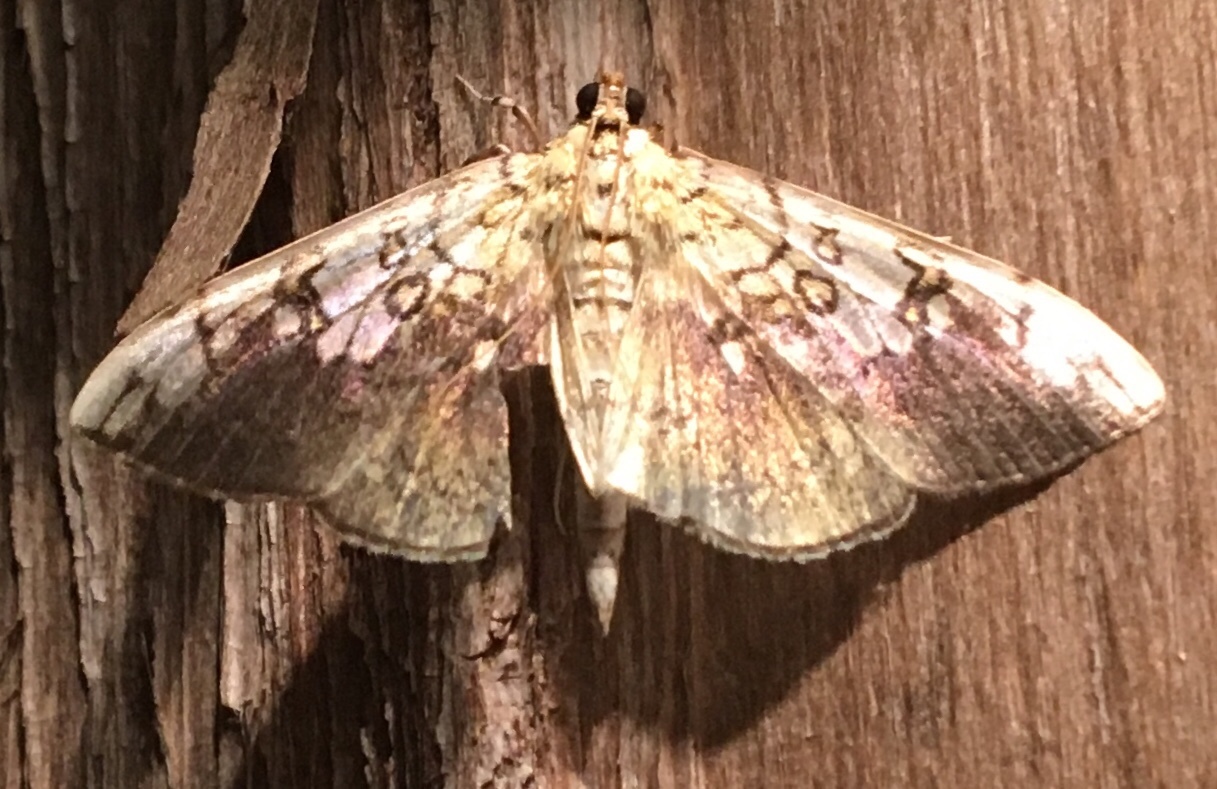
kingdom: Animalia
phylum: Arthropoda
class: Insecta
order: Lepidoptera
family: Crambidae
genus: Pantographa
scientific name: Pantographa limata
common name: Basswood leafroller moth
